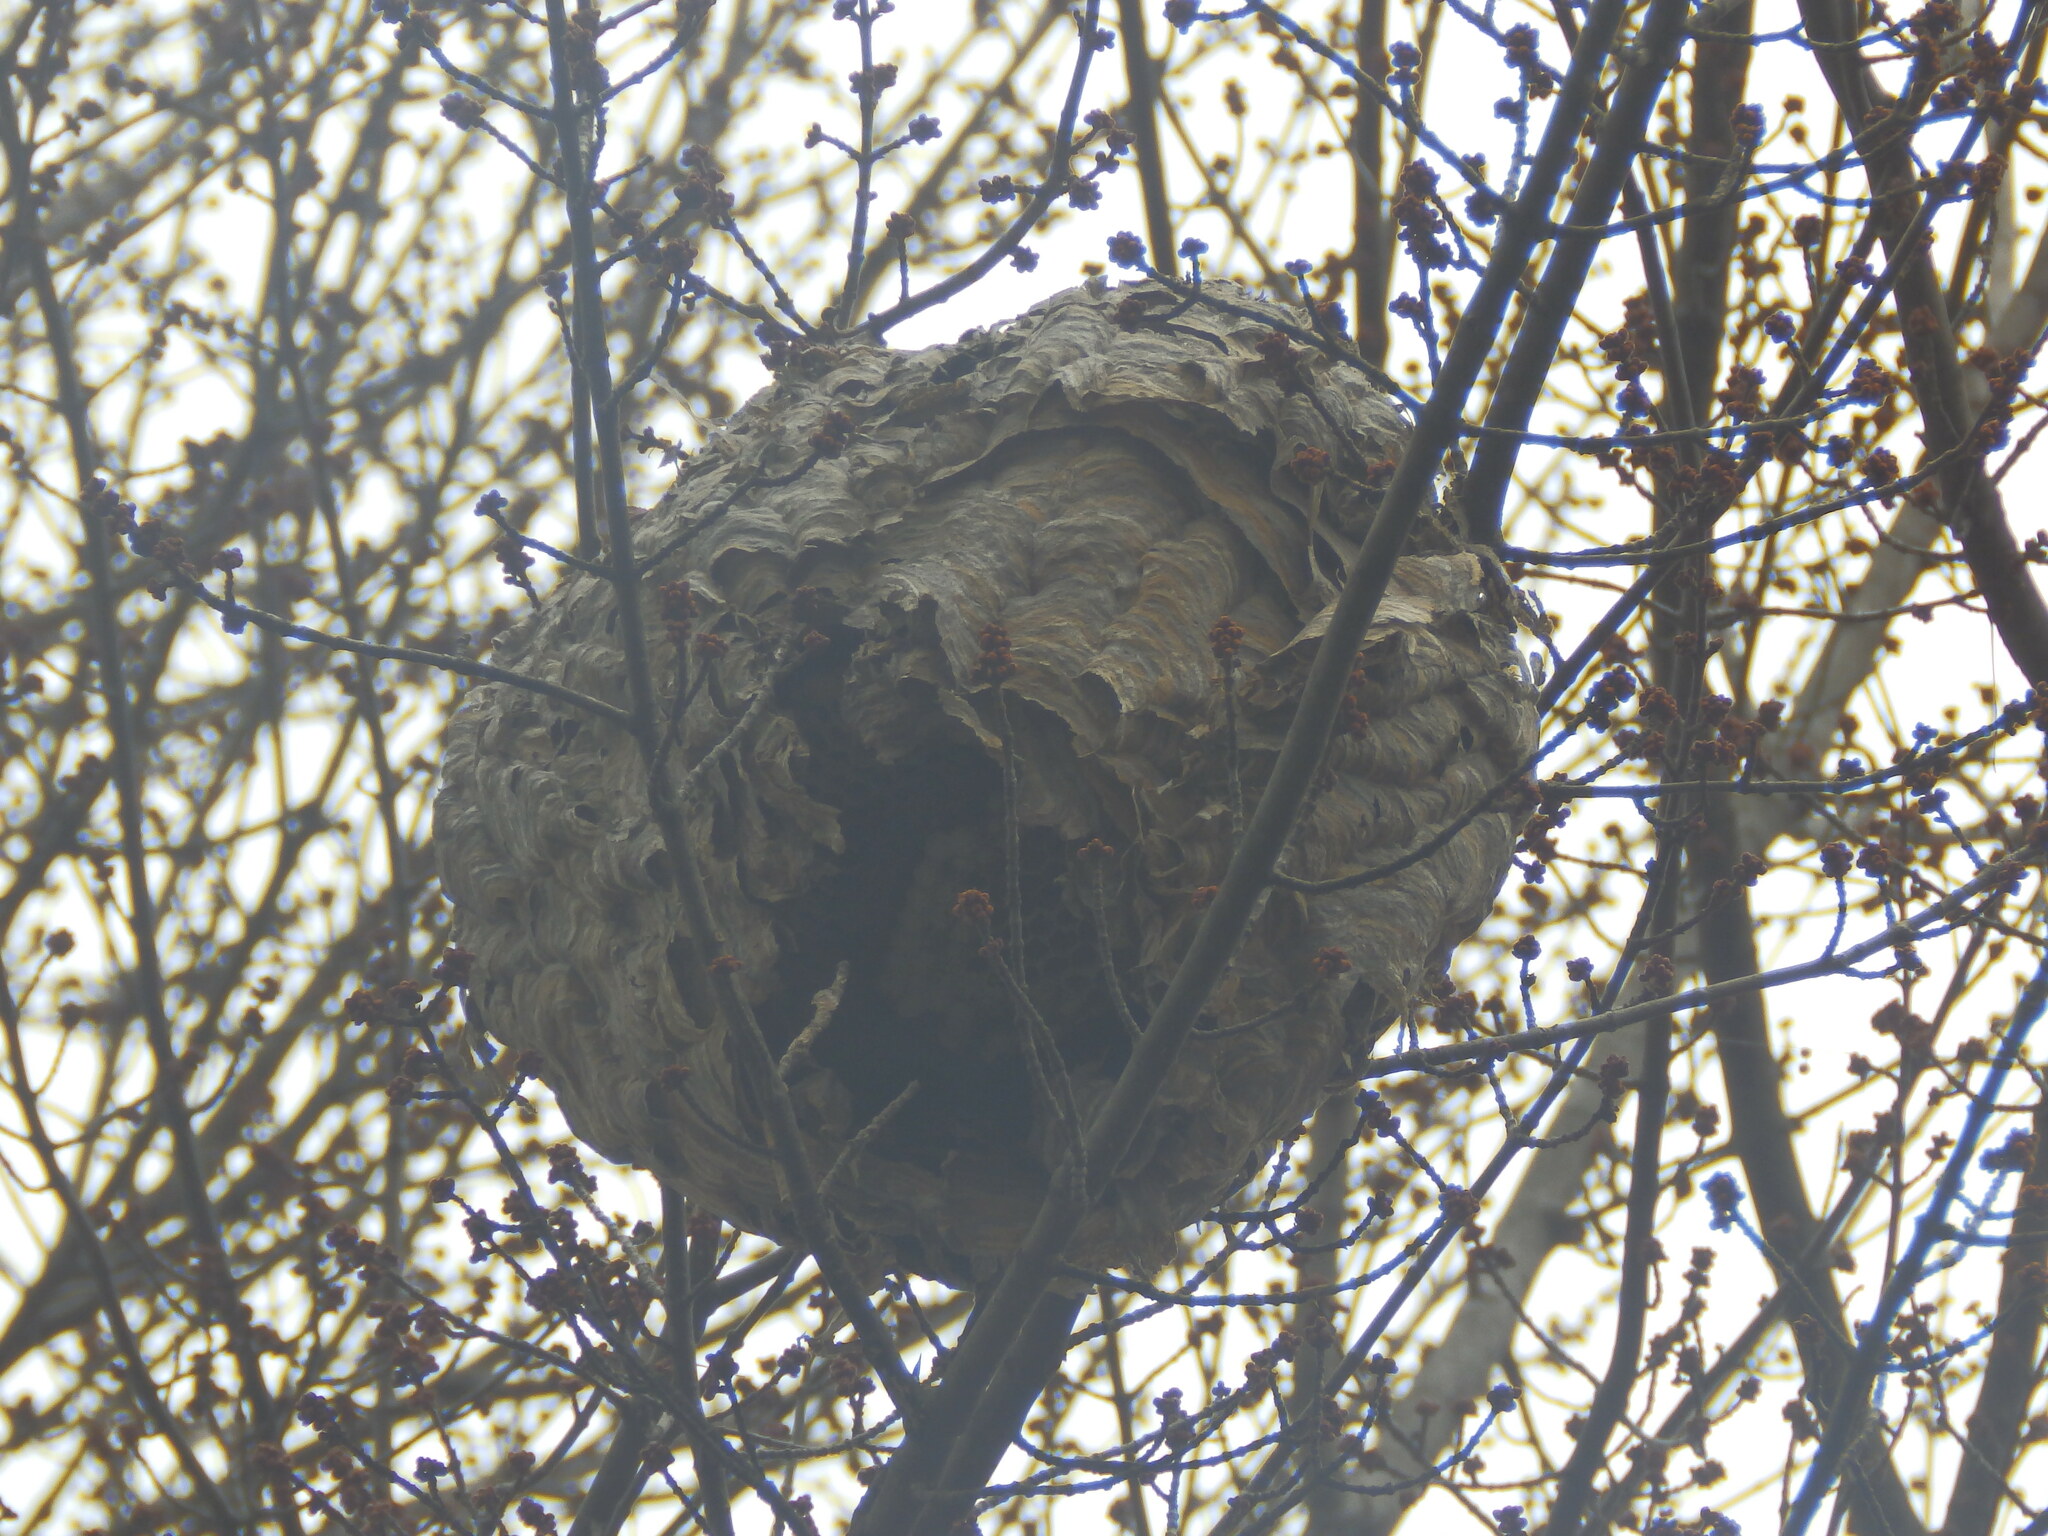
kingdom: Animalia
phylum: Arthropoda
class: Insecta
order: Hymenoptera
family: Vespidae
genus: Dolichovespula
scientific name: Dolichovespula maculata
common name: Bald-faced hornet
